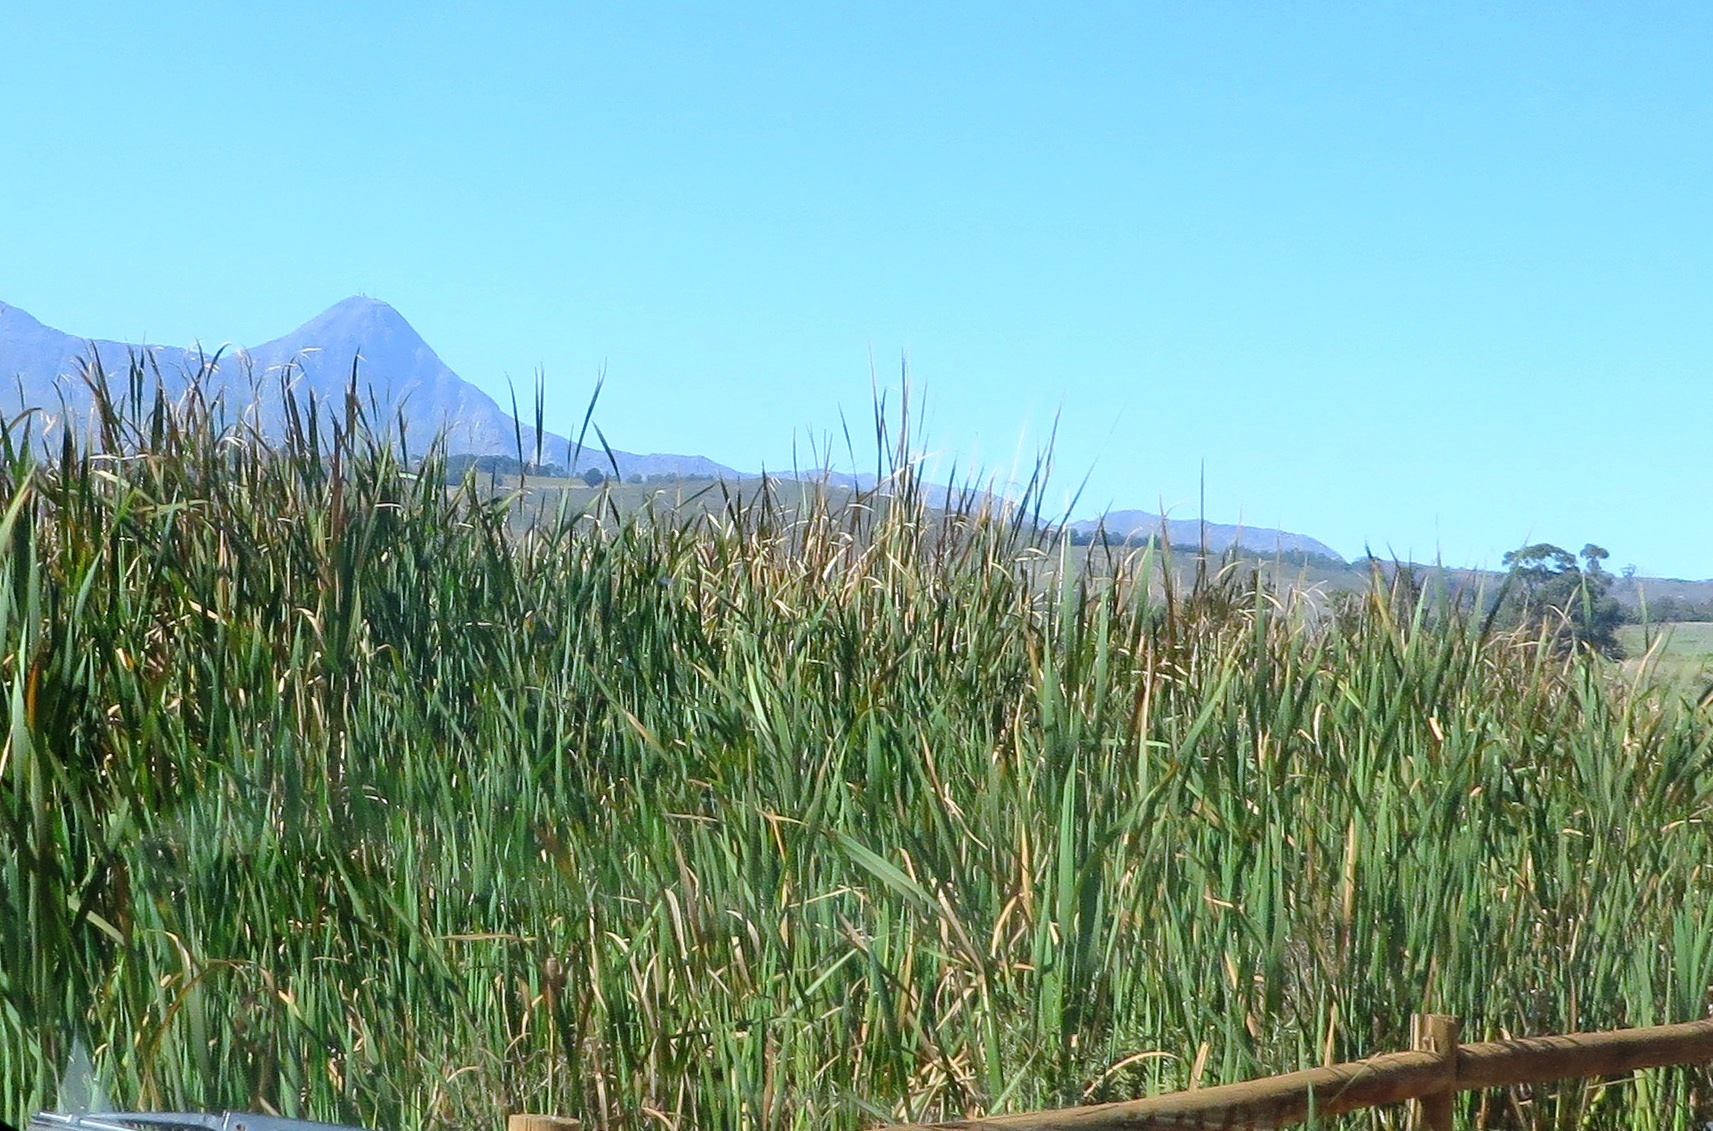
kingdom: Plantae
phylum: Tracheophyta
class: Liliopsida
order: Poales
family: Typhaceae
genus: Typha
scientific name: Typha capensis
